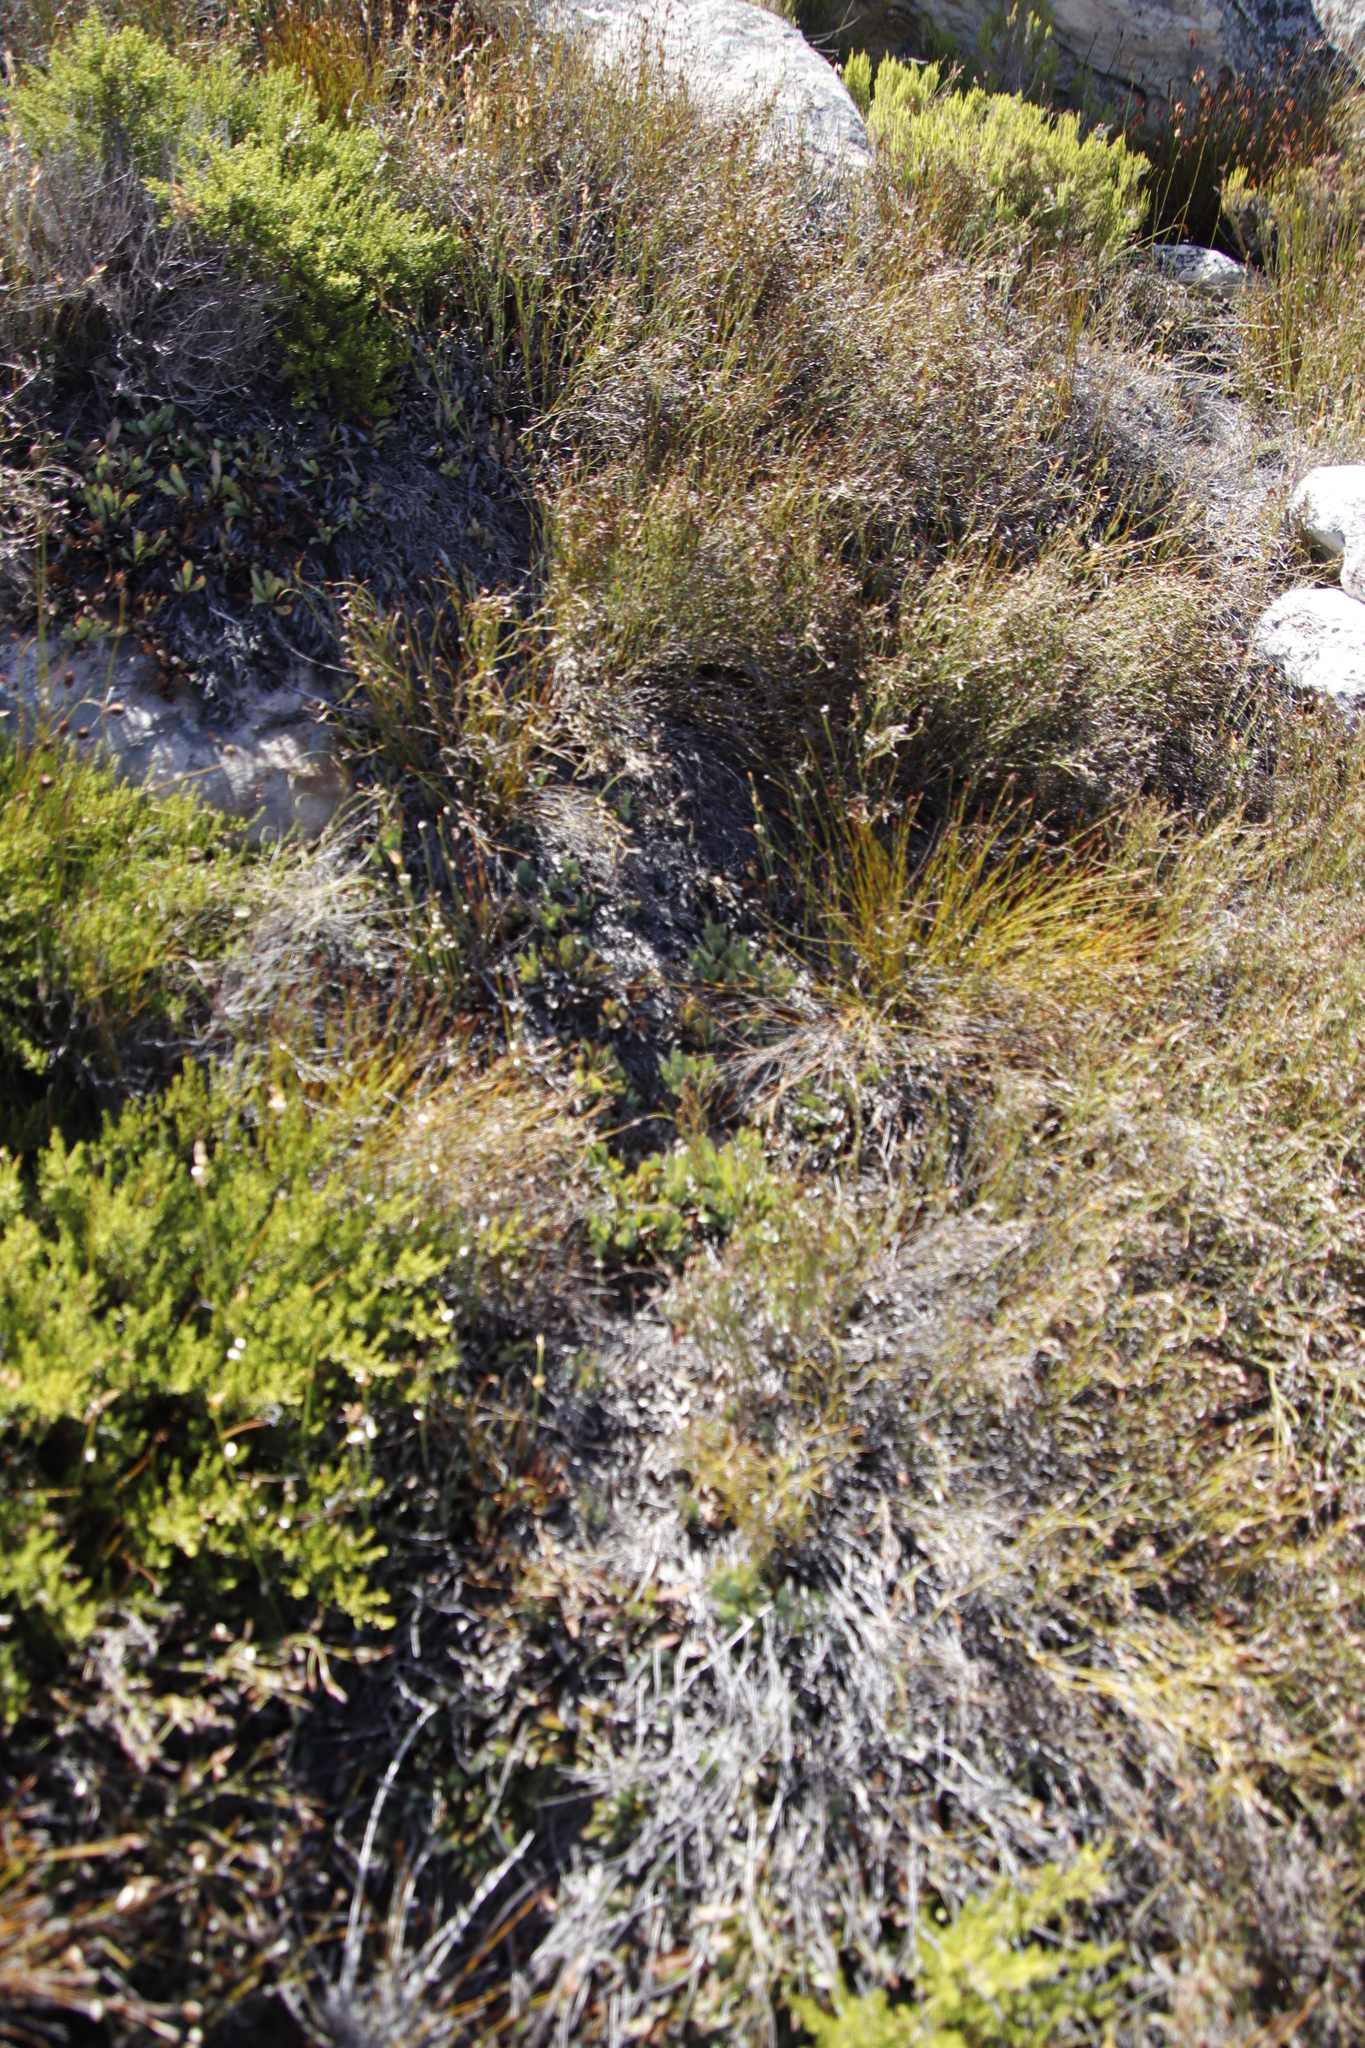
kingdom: Plantae
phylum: Tracheophyta
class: Magnoliopsida
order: Proteales
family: Proteaceae
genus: Protea
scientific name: Protea laevis
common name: Smooth-leaf sugarbush
